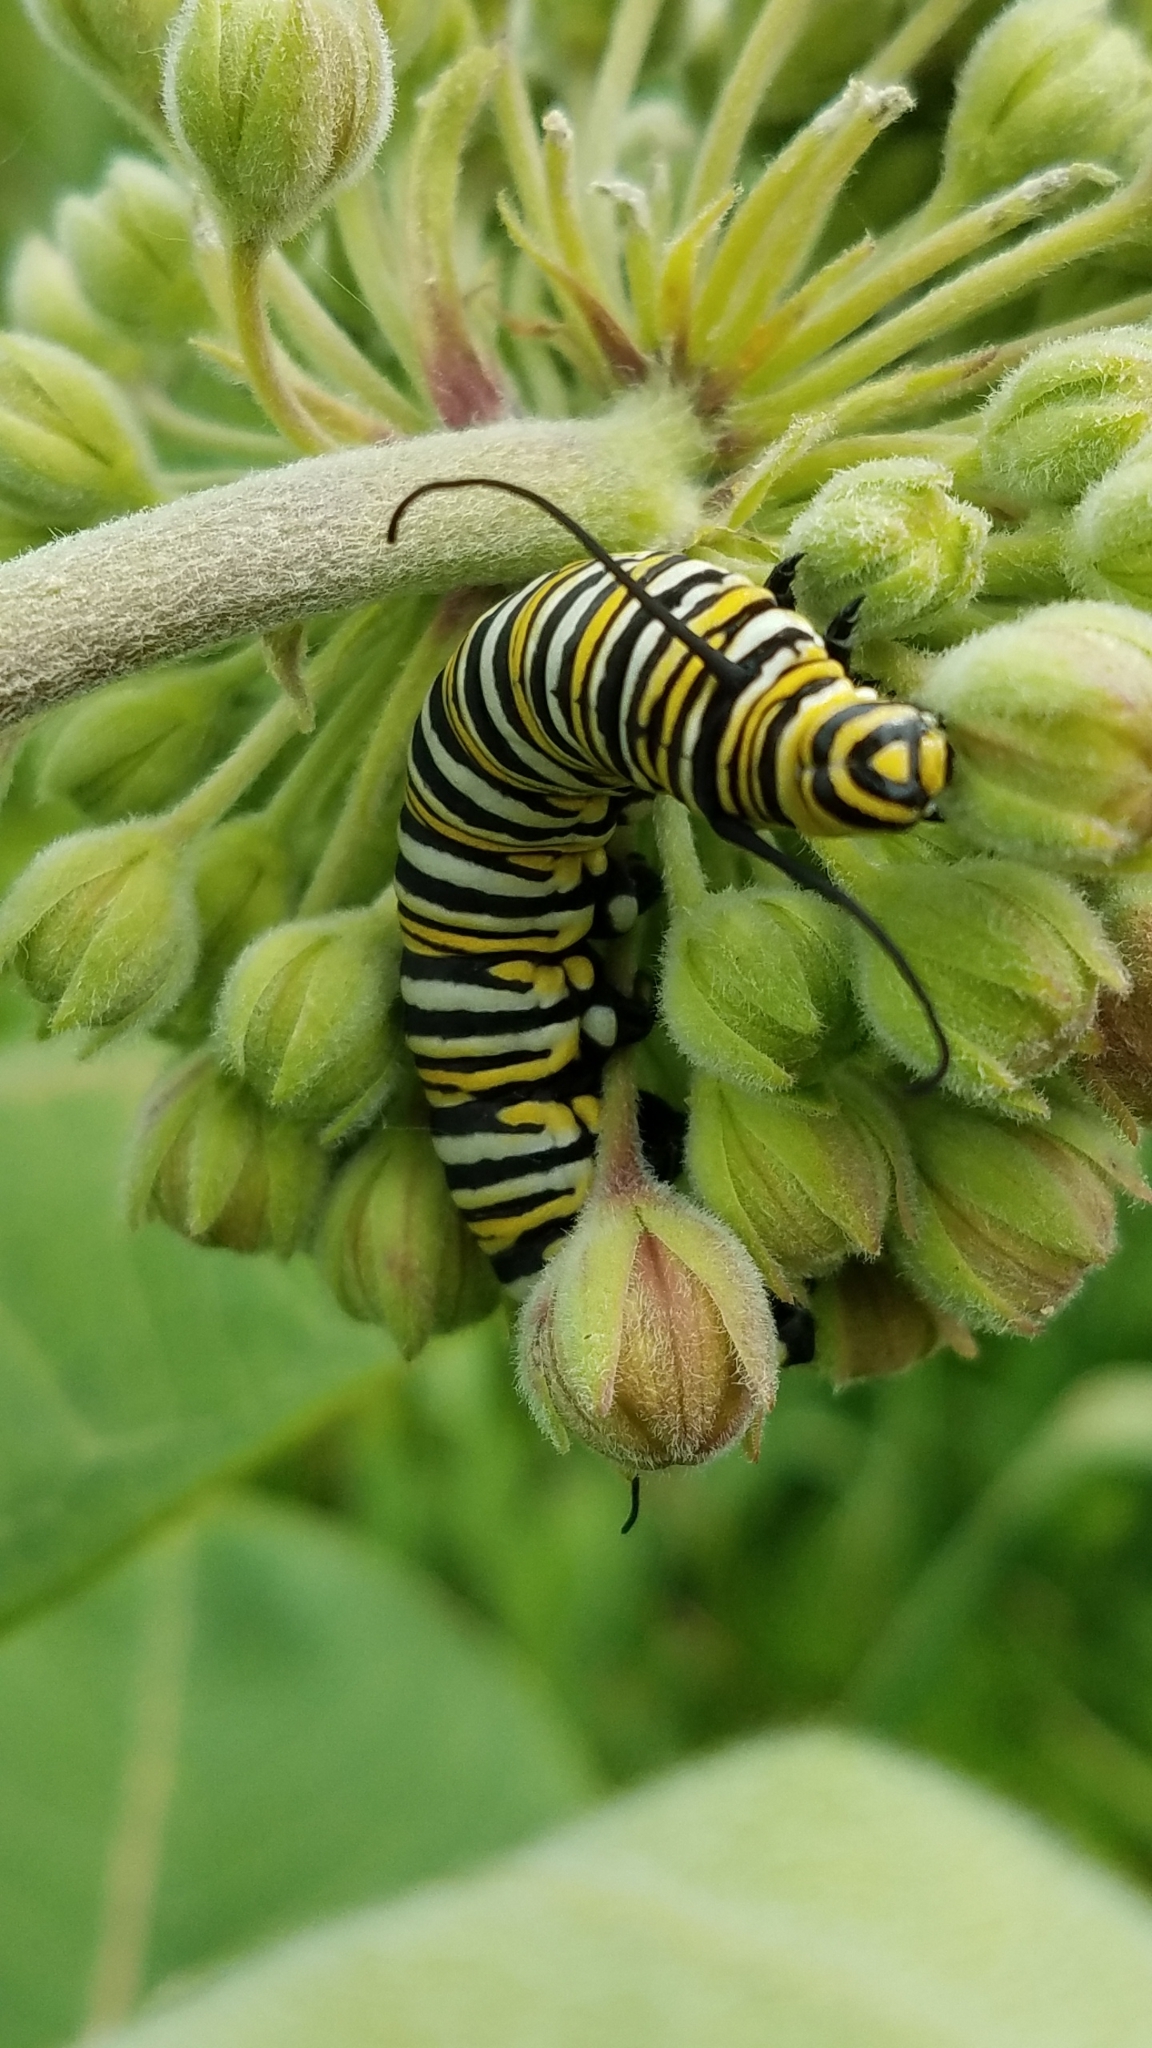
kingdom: Animalia
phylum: Arthropoda
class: Insecta
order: Lepidoptera
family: Nymphalidae
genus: Danaus
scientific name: Danaus plexippus
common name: Monarch
